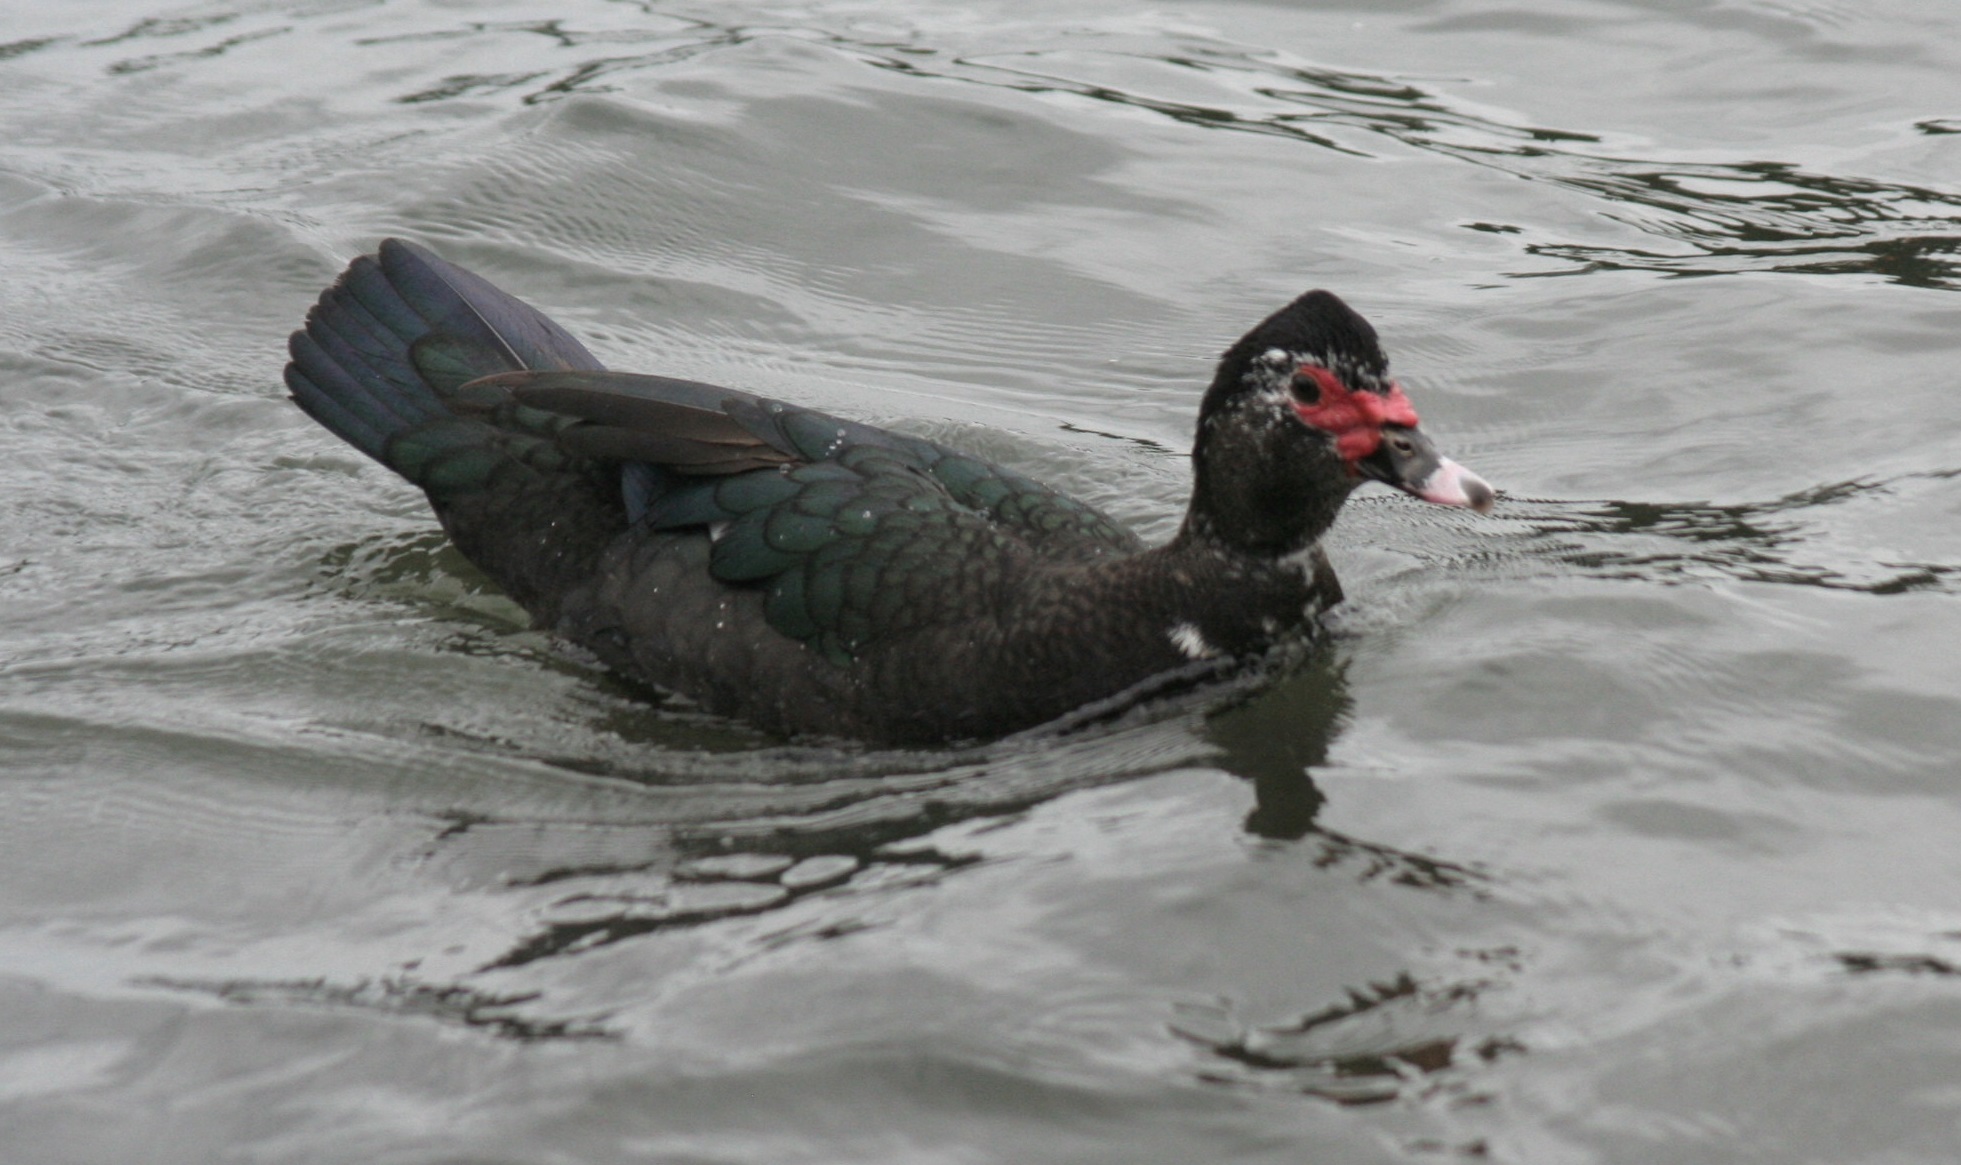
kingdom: Animalia
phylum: Chordata
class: Aves
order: Anseriformes
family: Anatidae
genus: Cairina
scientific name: Cairina moschata
